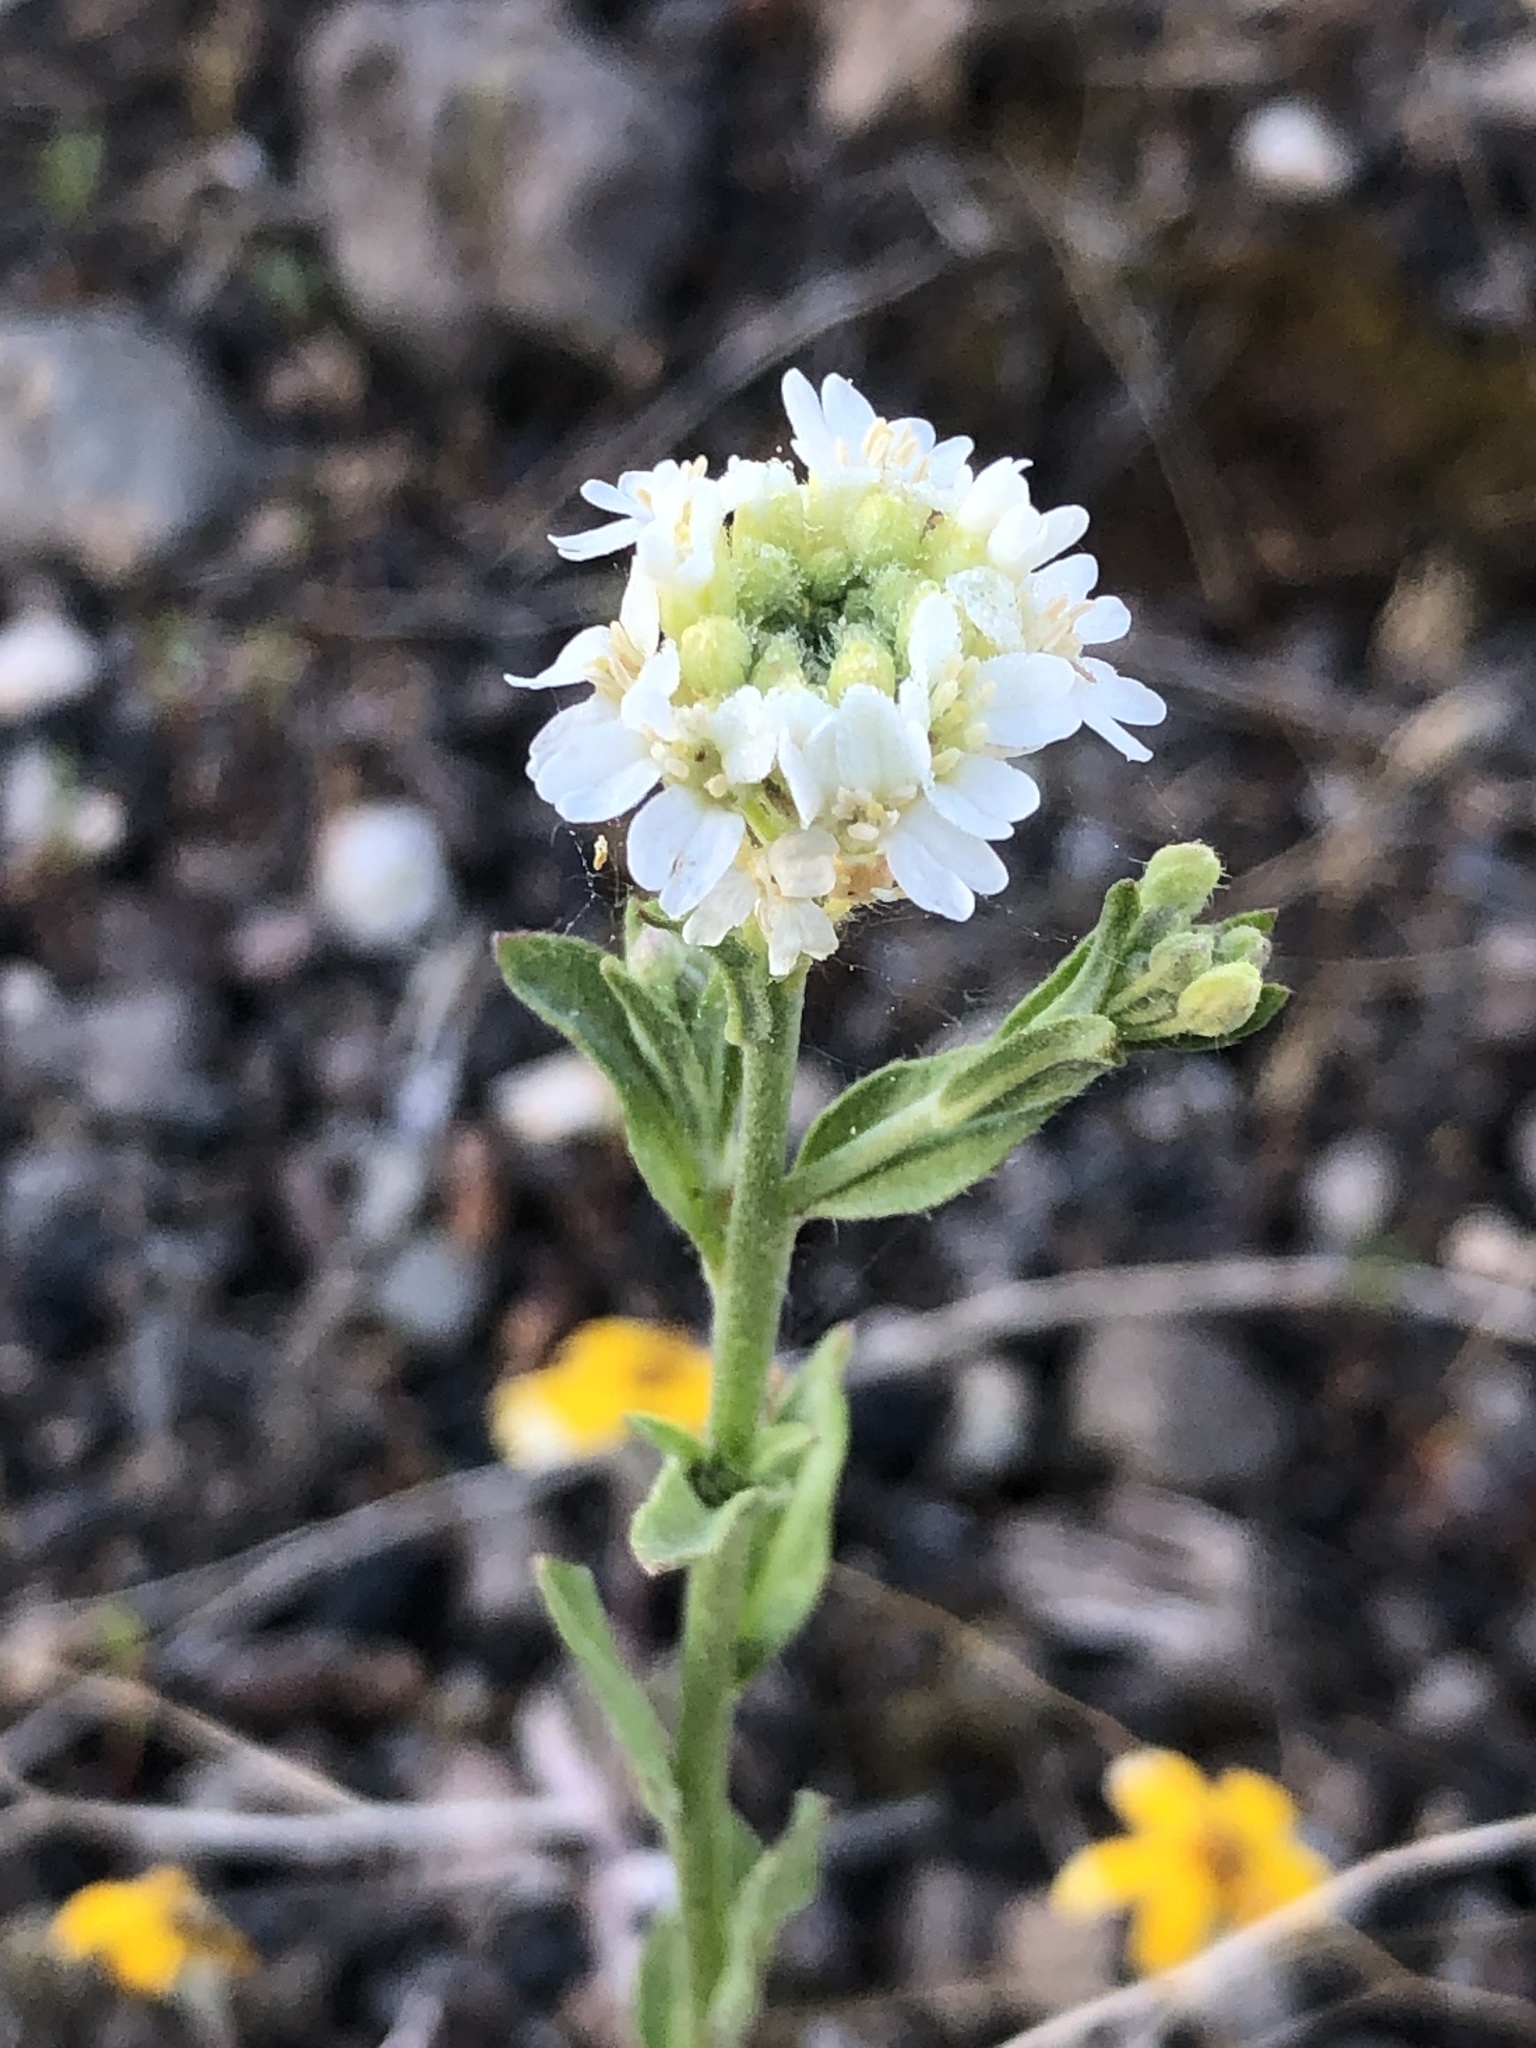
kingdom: Plantae
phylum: Tracheophyta
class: Magnoliopsida
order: Brassicales
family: Brassicaceae
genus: Berteroa
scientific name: Berteroa incana
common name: Hoary alison
